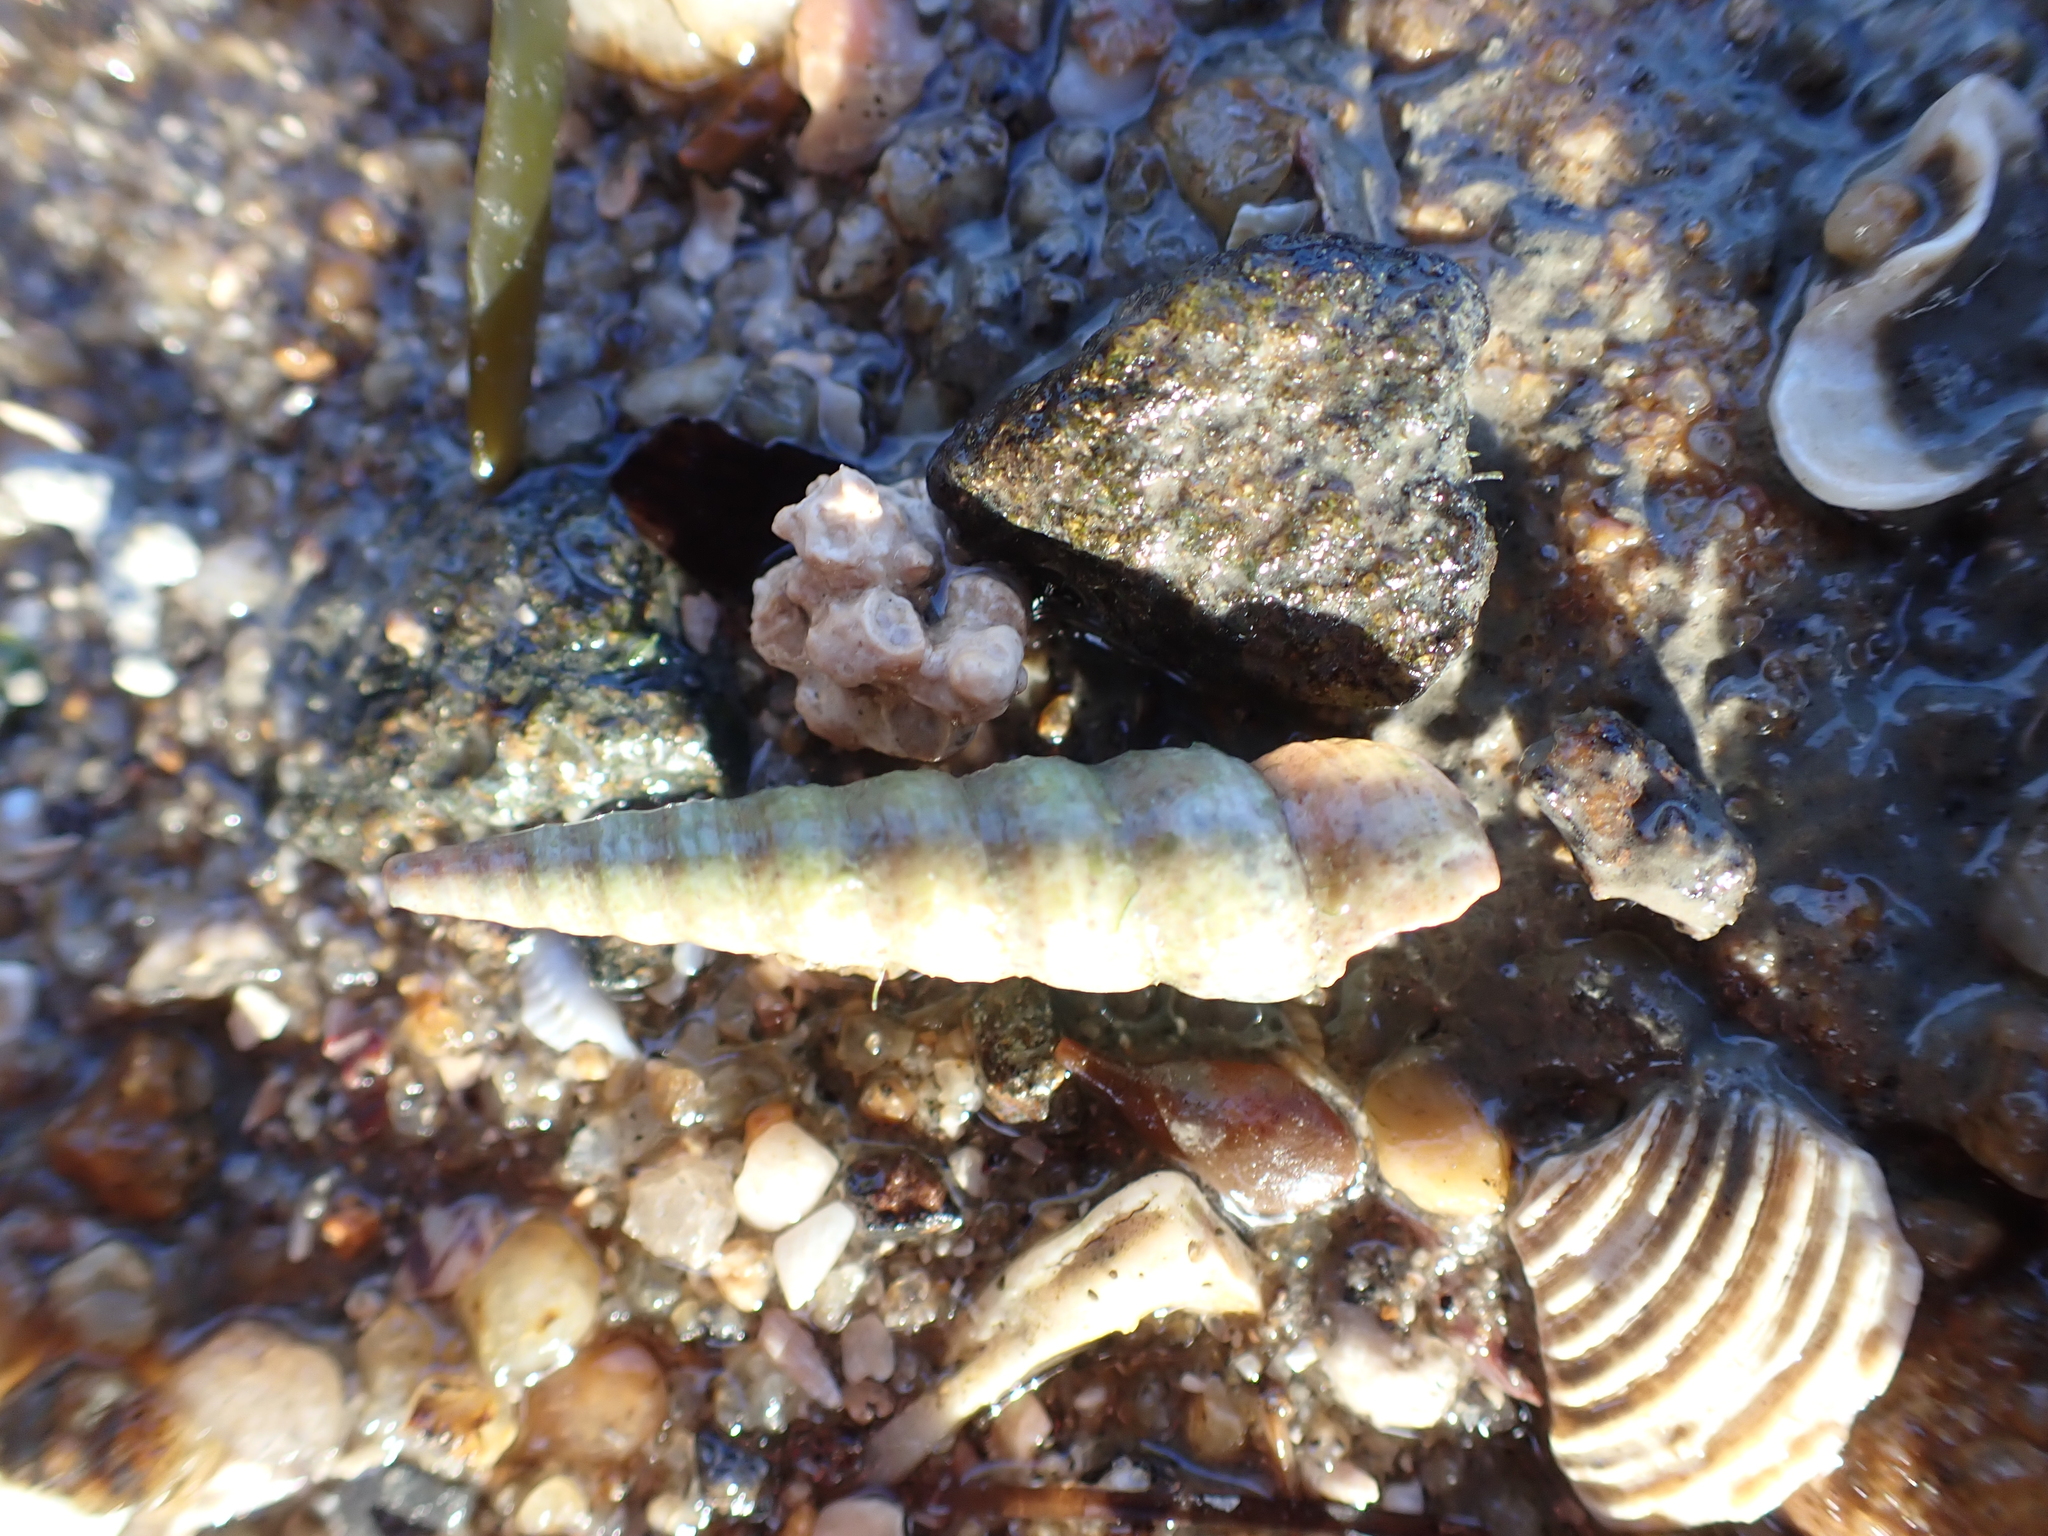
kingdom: Animalia
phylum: Mollusca
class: Gastropoda
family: Turritellidae
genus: Turritellinella
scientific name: Turritellinella tricarinata
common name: Auger shell
